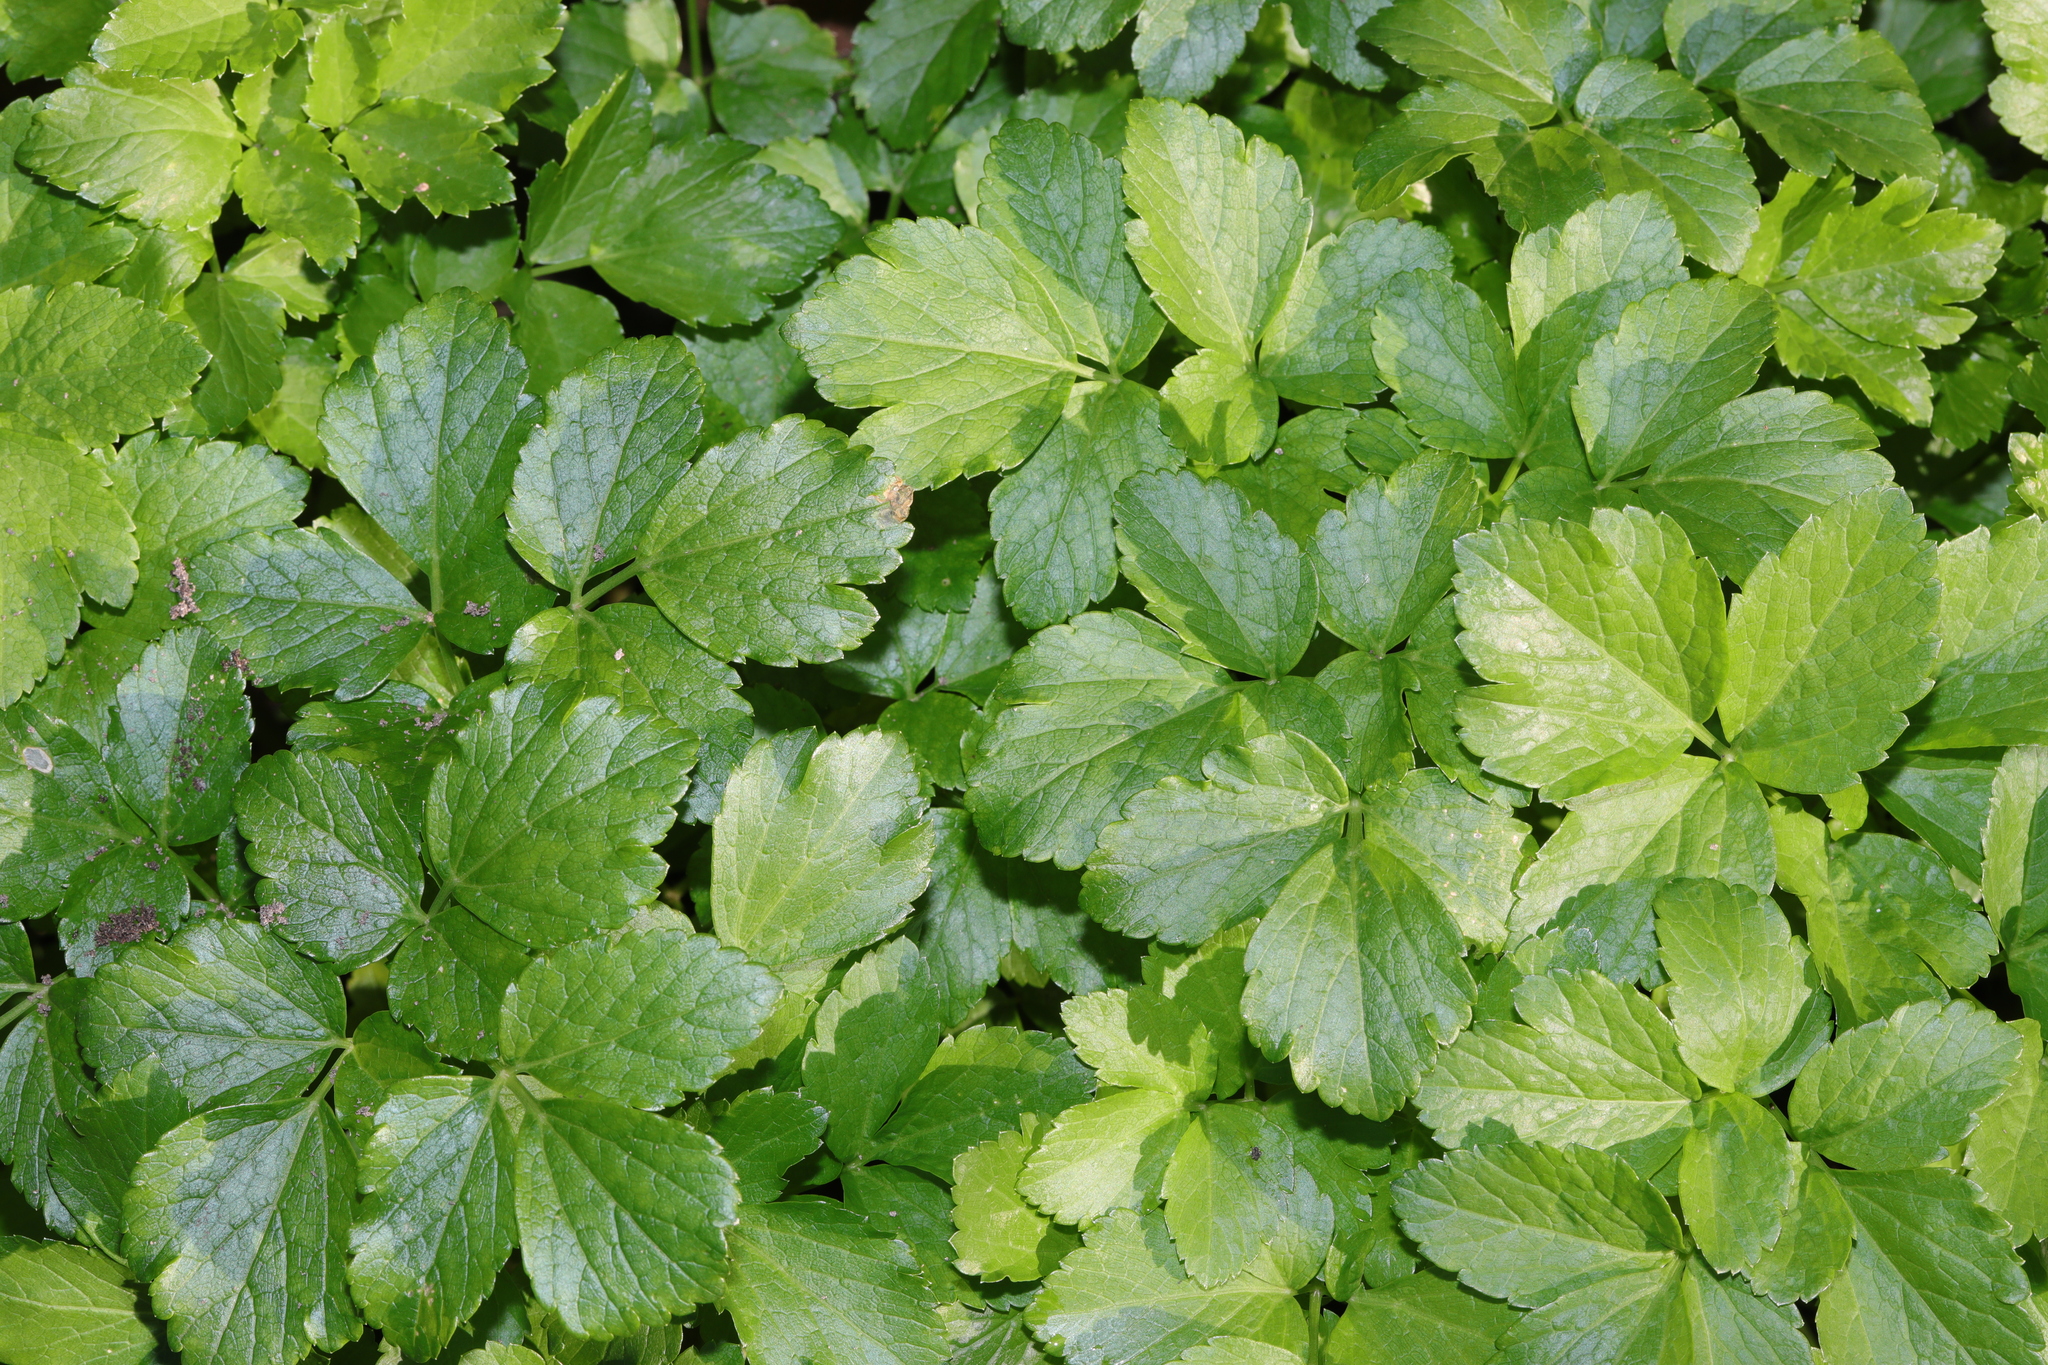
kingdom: Plantae
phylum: Tracheophyta
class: Magnoliopsida
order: Apiales
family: Apiaceae
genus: Smyrnium
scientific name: Smyrnium olusatrum
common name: Alexanders
